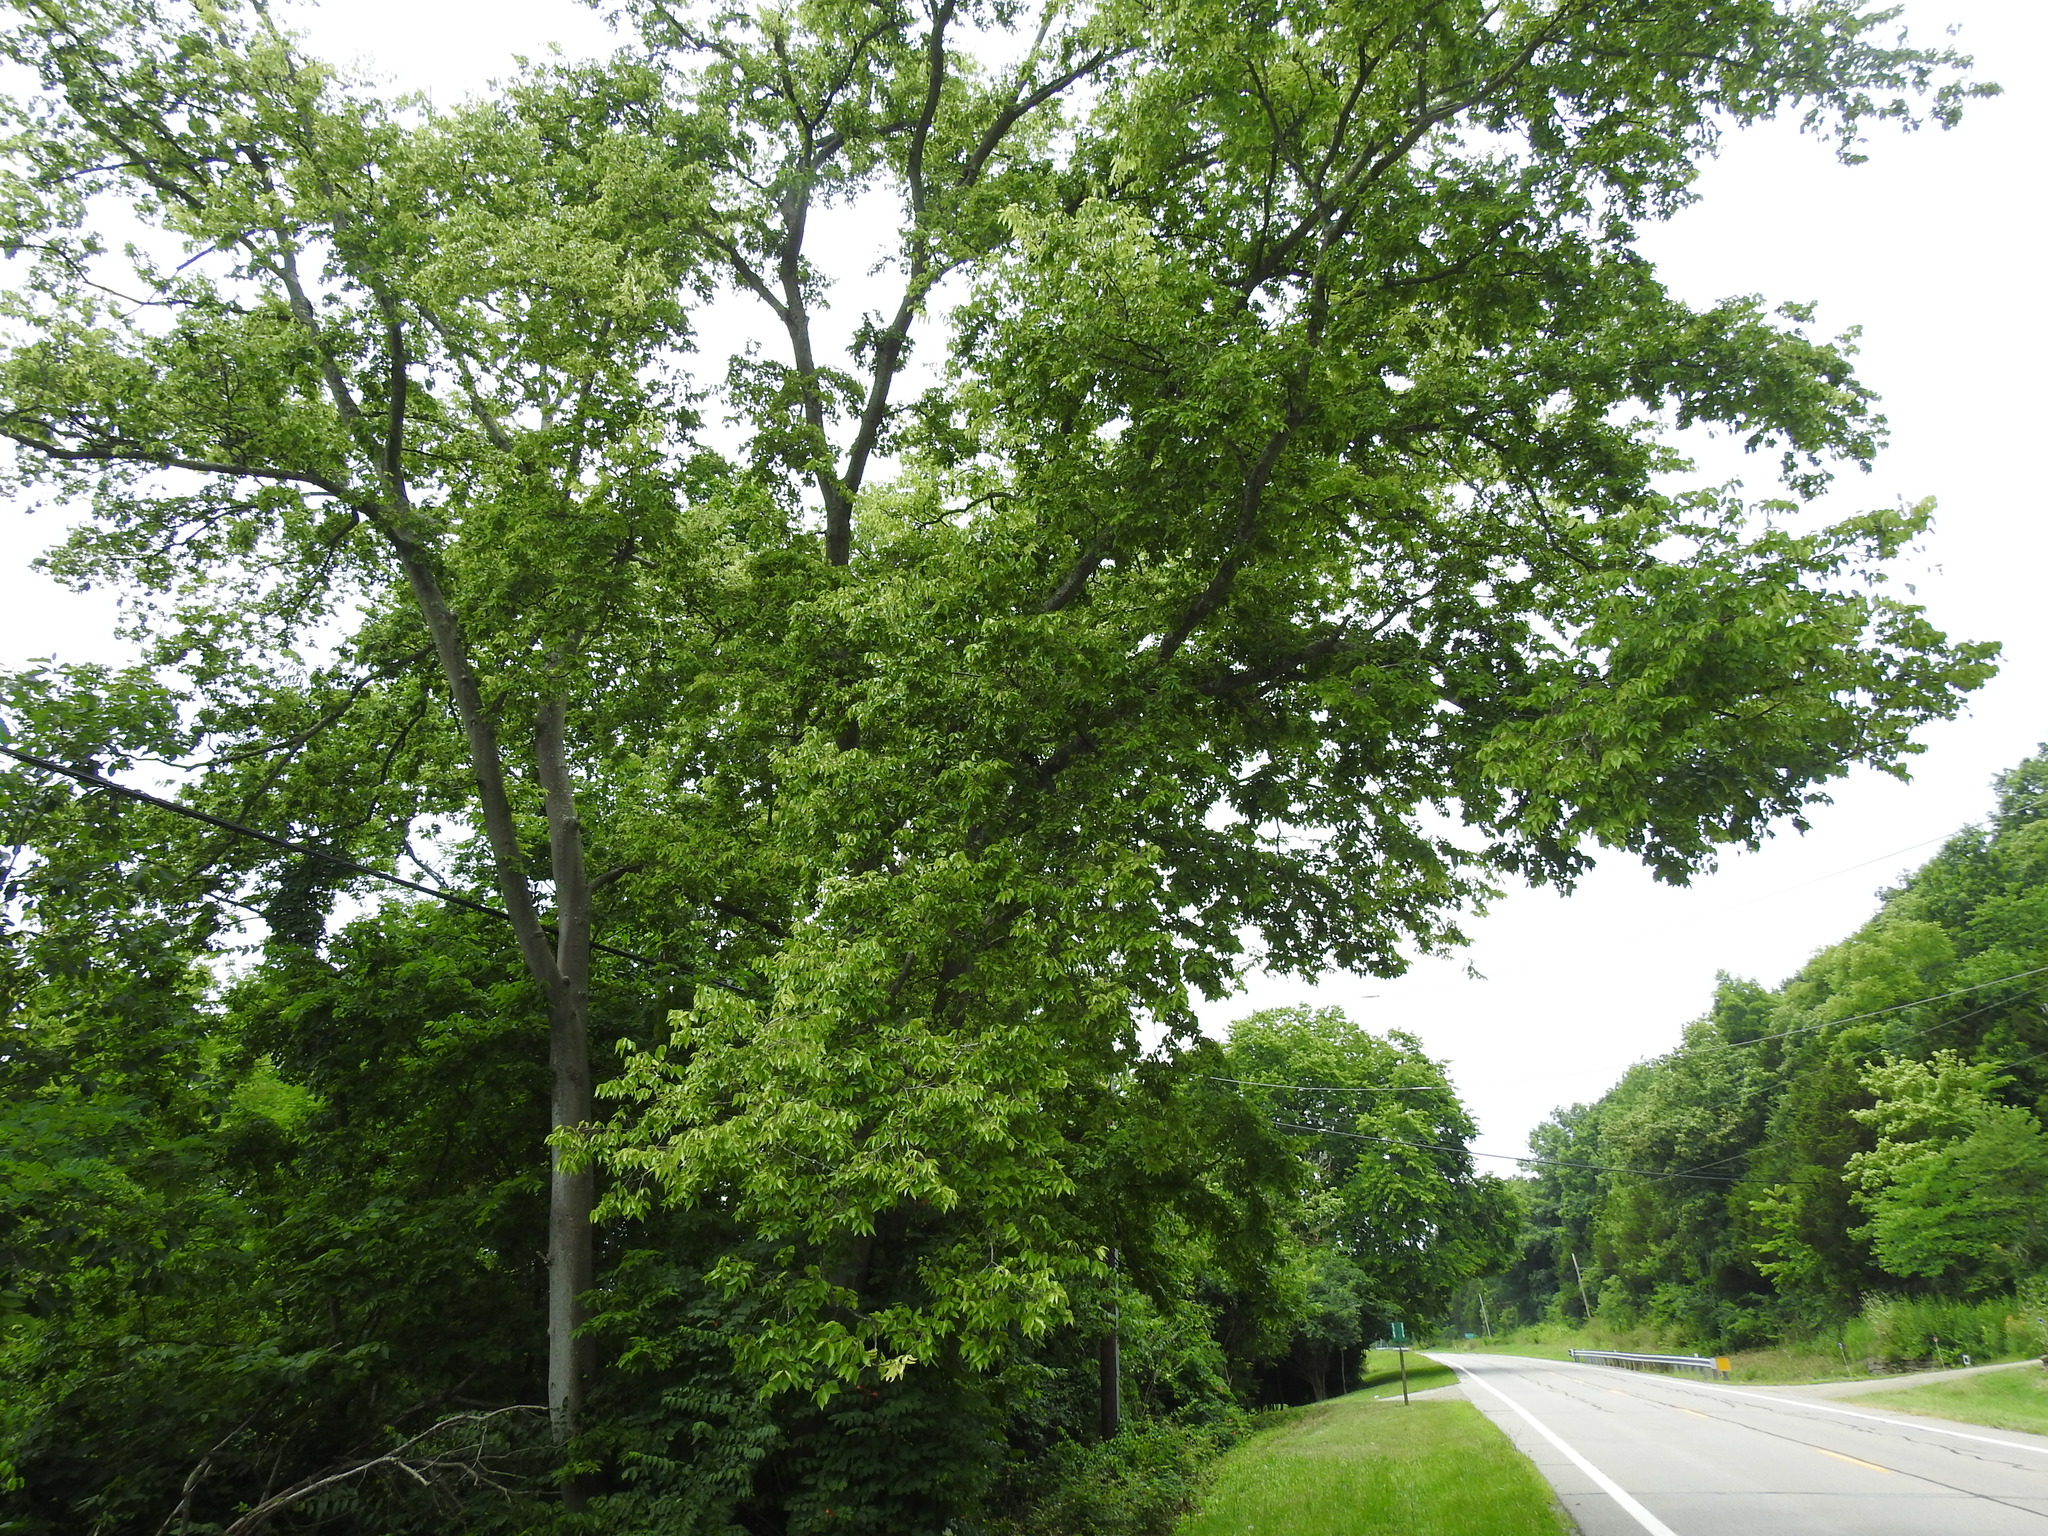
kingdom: Plantae
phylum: Tracheophyta
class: Magnoliopsida
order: Rosales
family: Cannabaceae
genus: Celtis
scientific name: Celtis laevigata
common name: Sugarberry
